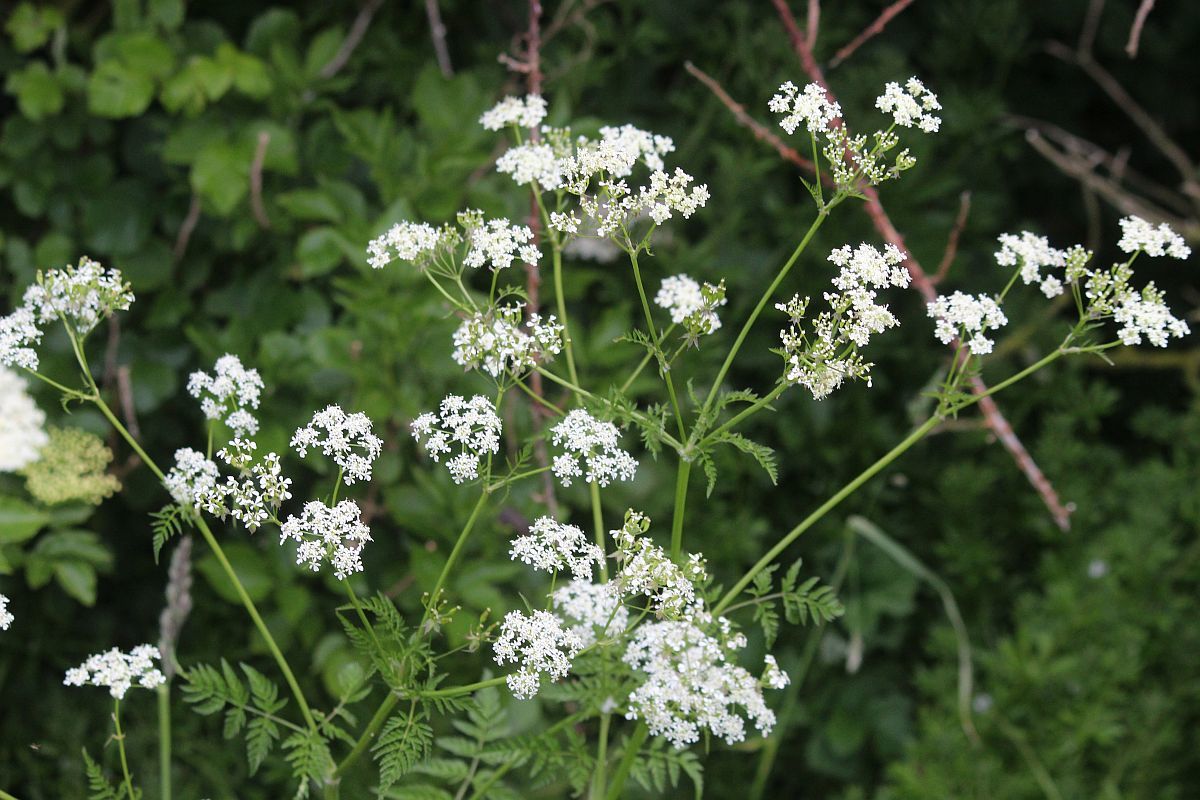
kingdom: Plantae
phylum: Tracheophyta
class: Magnoliopsida
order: Apiales
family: Apiaceae
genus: Anthriscus
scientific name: Anthriscus sylvestris
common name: Cow parsley
